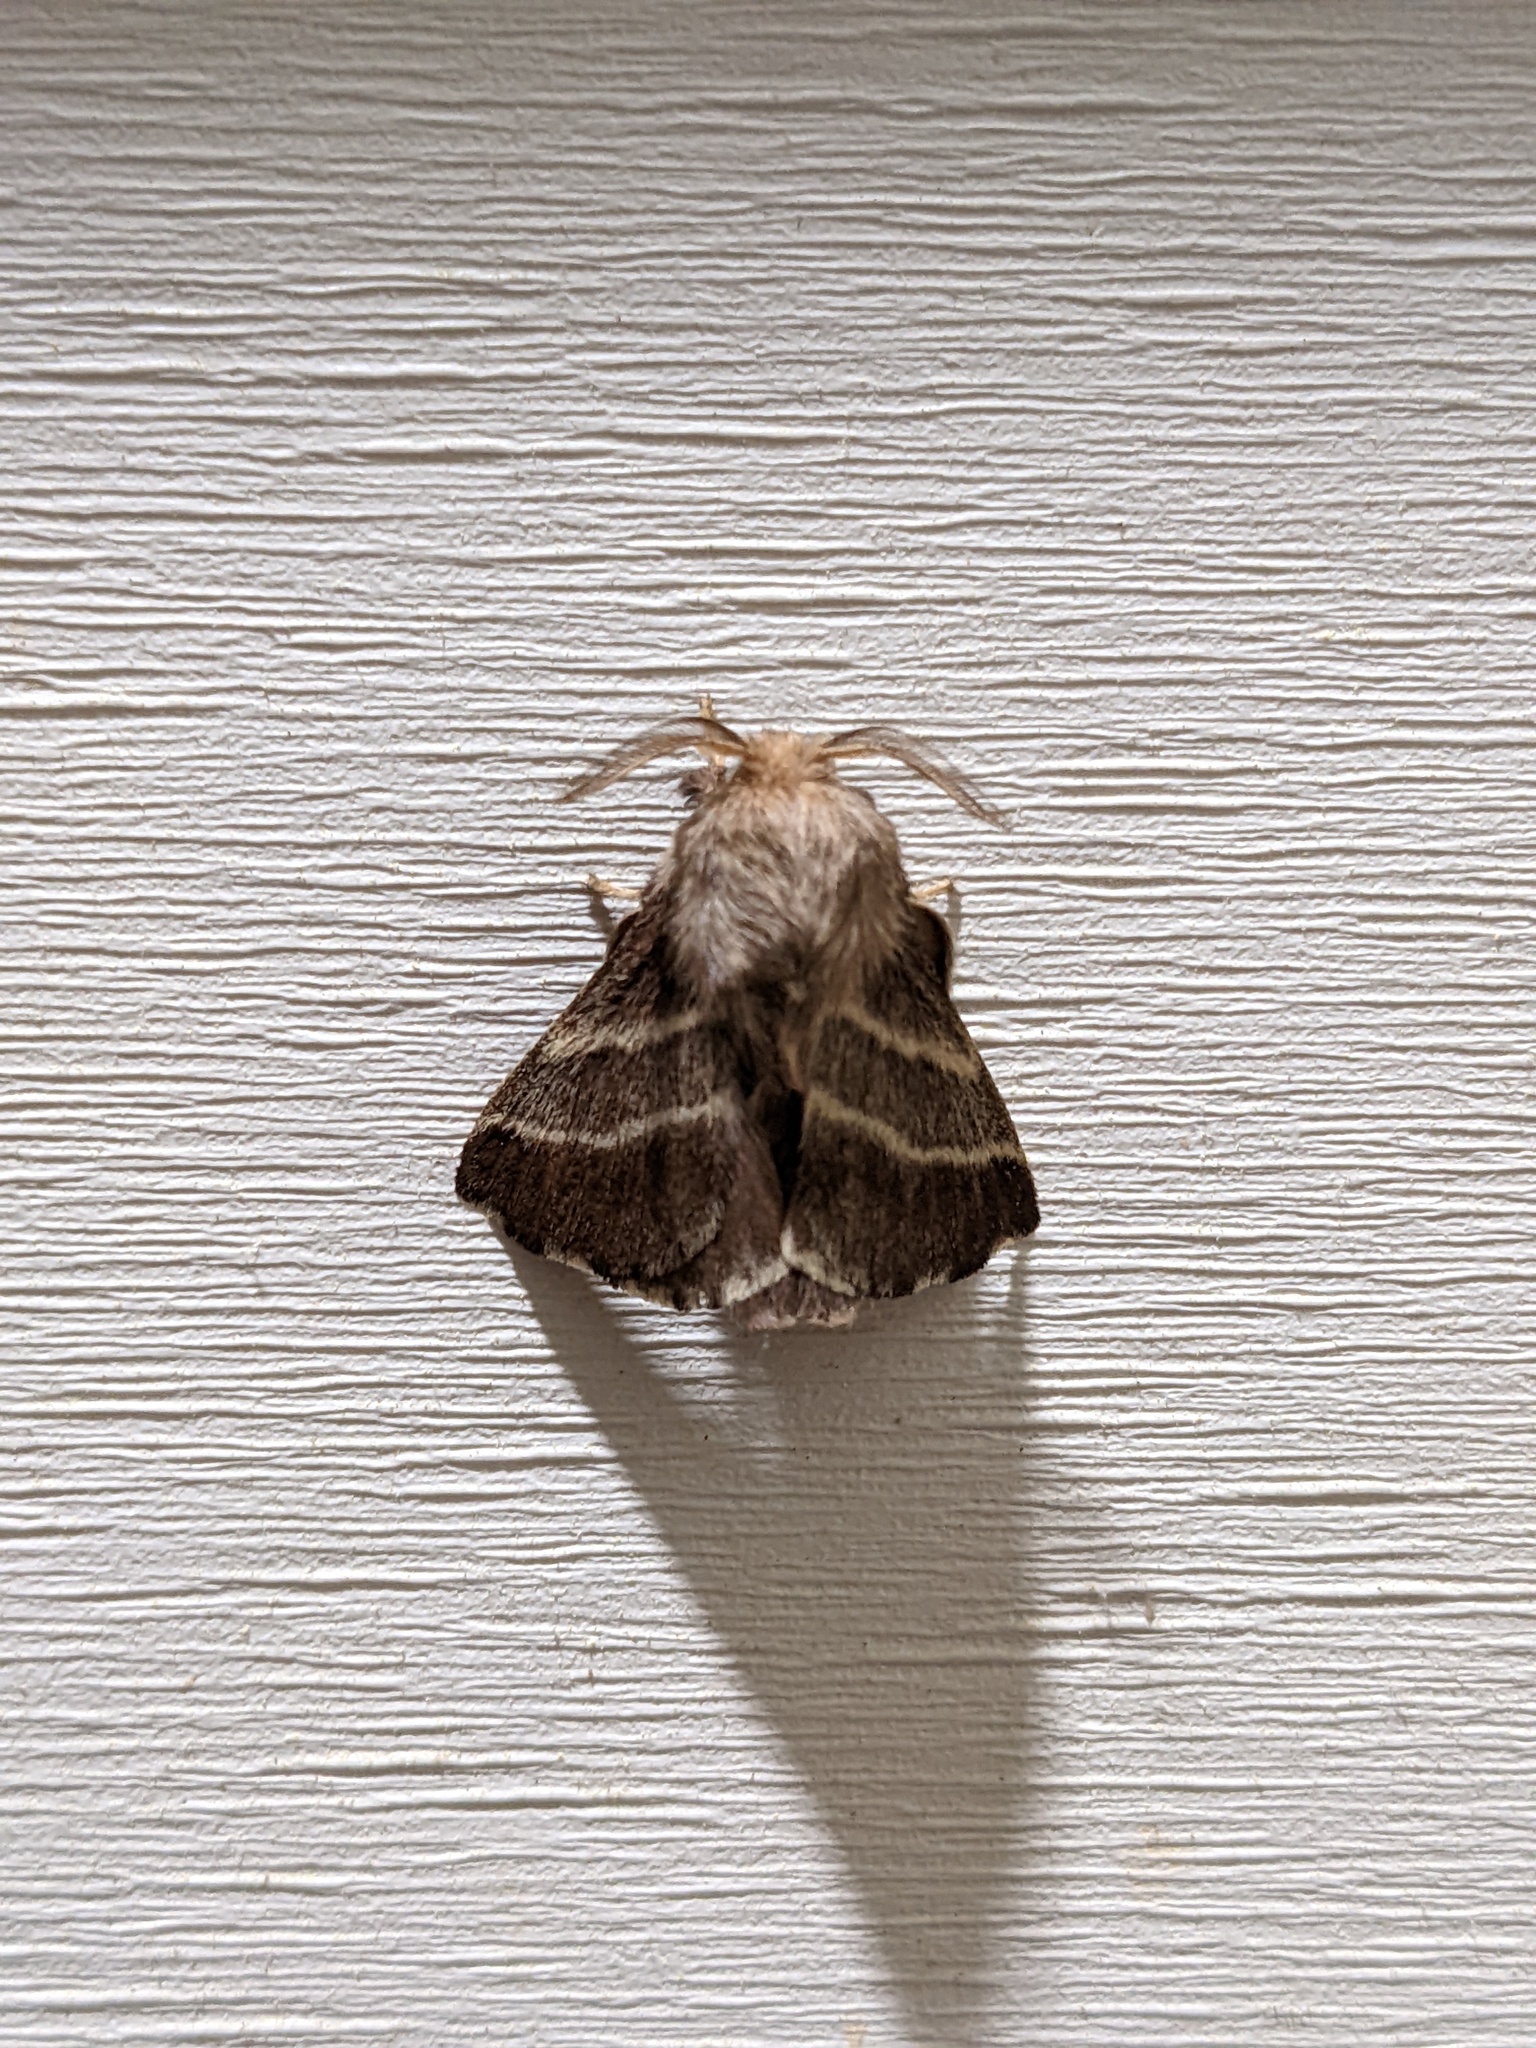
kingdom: Animalia
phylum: Arthropoda
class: Insecta
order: Lepidoptera
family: Lasiocampidae
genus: Malacosoma
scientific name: Malacosoma americana
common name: Eastern tent caterpillar moth
